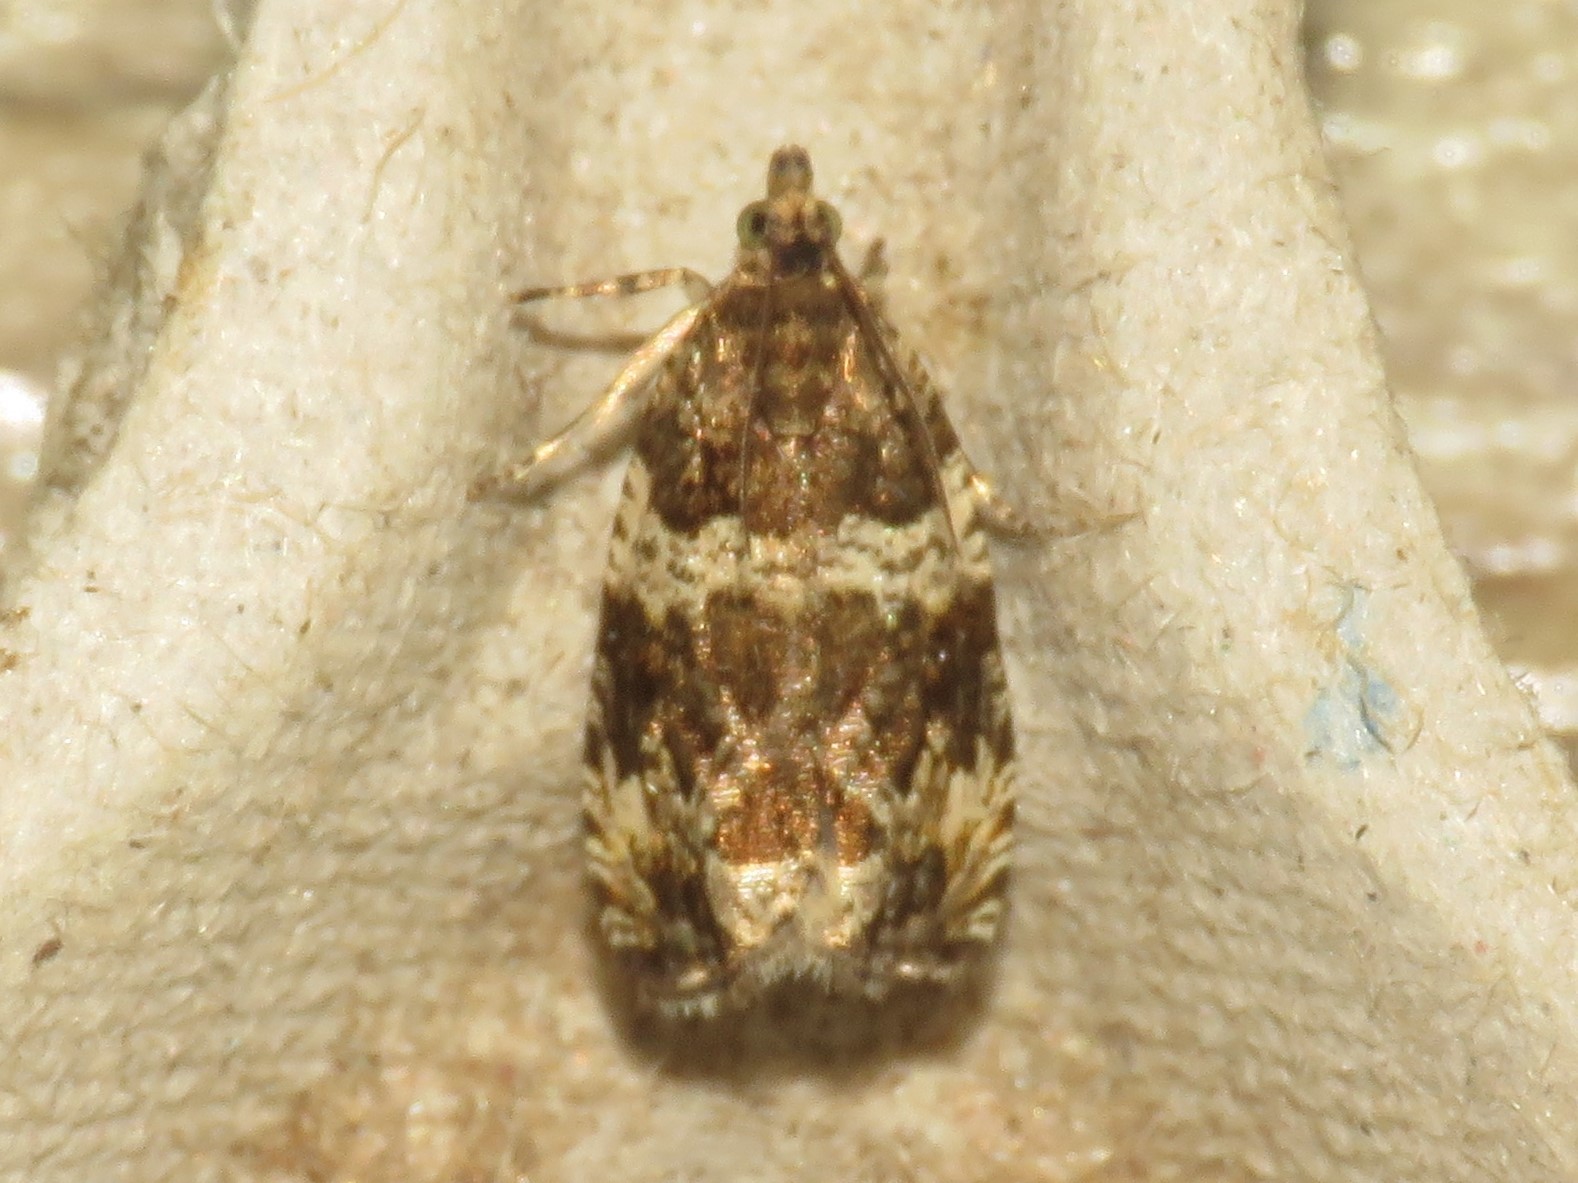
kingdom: Animalia
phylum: Arthropoda
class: Insecta
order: Lepidoptera
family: Tortricidae
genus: Olethreutes
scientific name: Olethreutes valdanum
